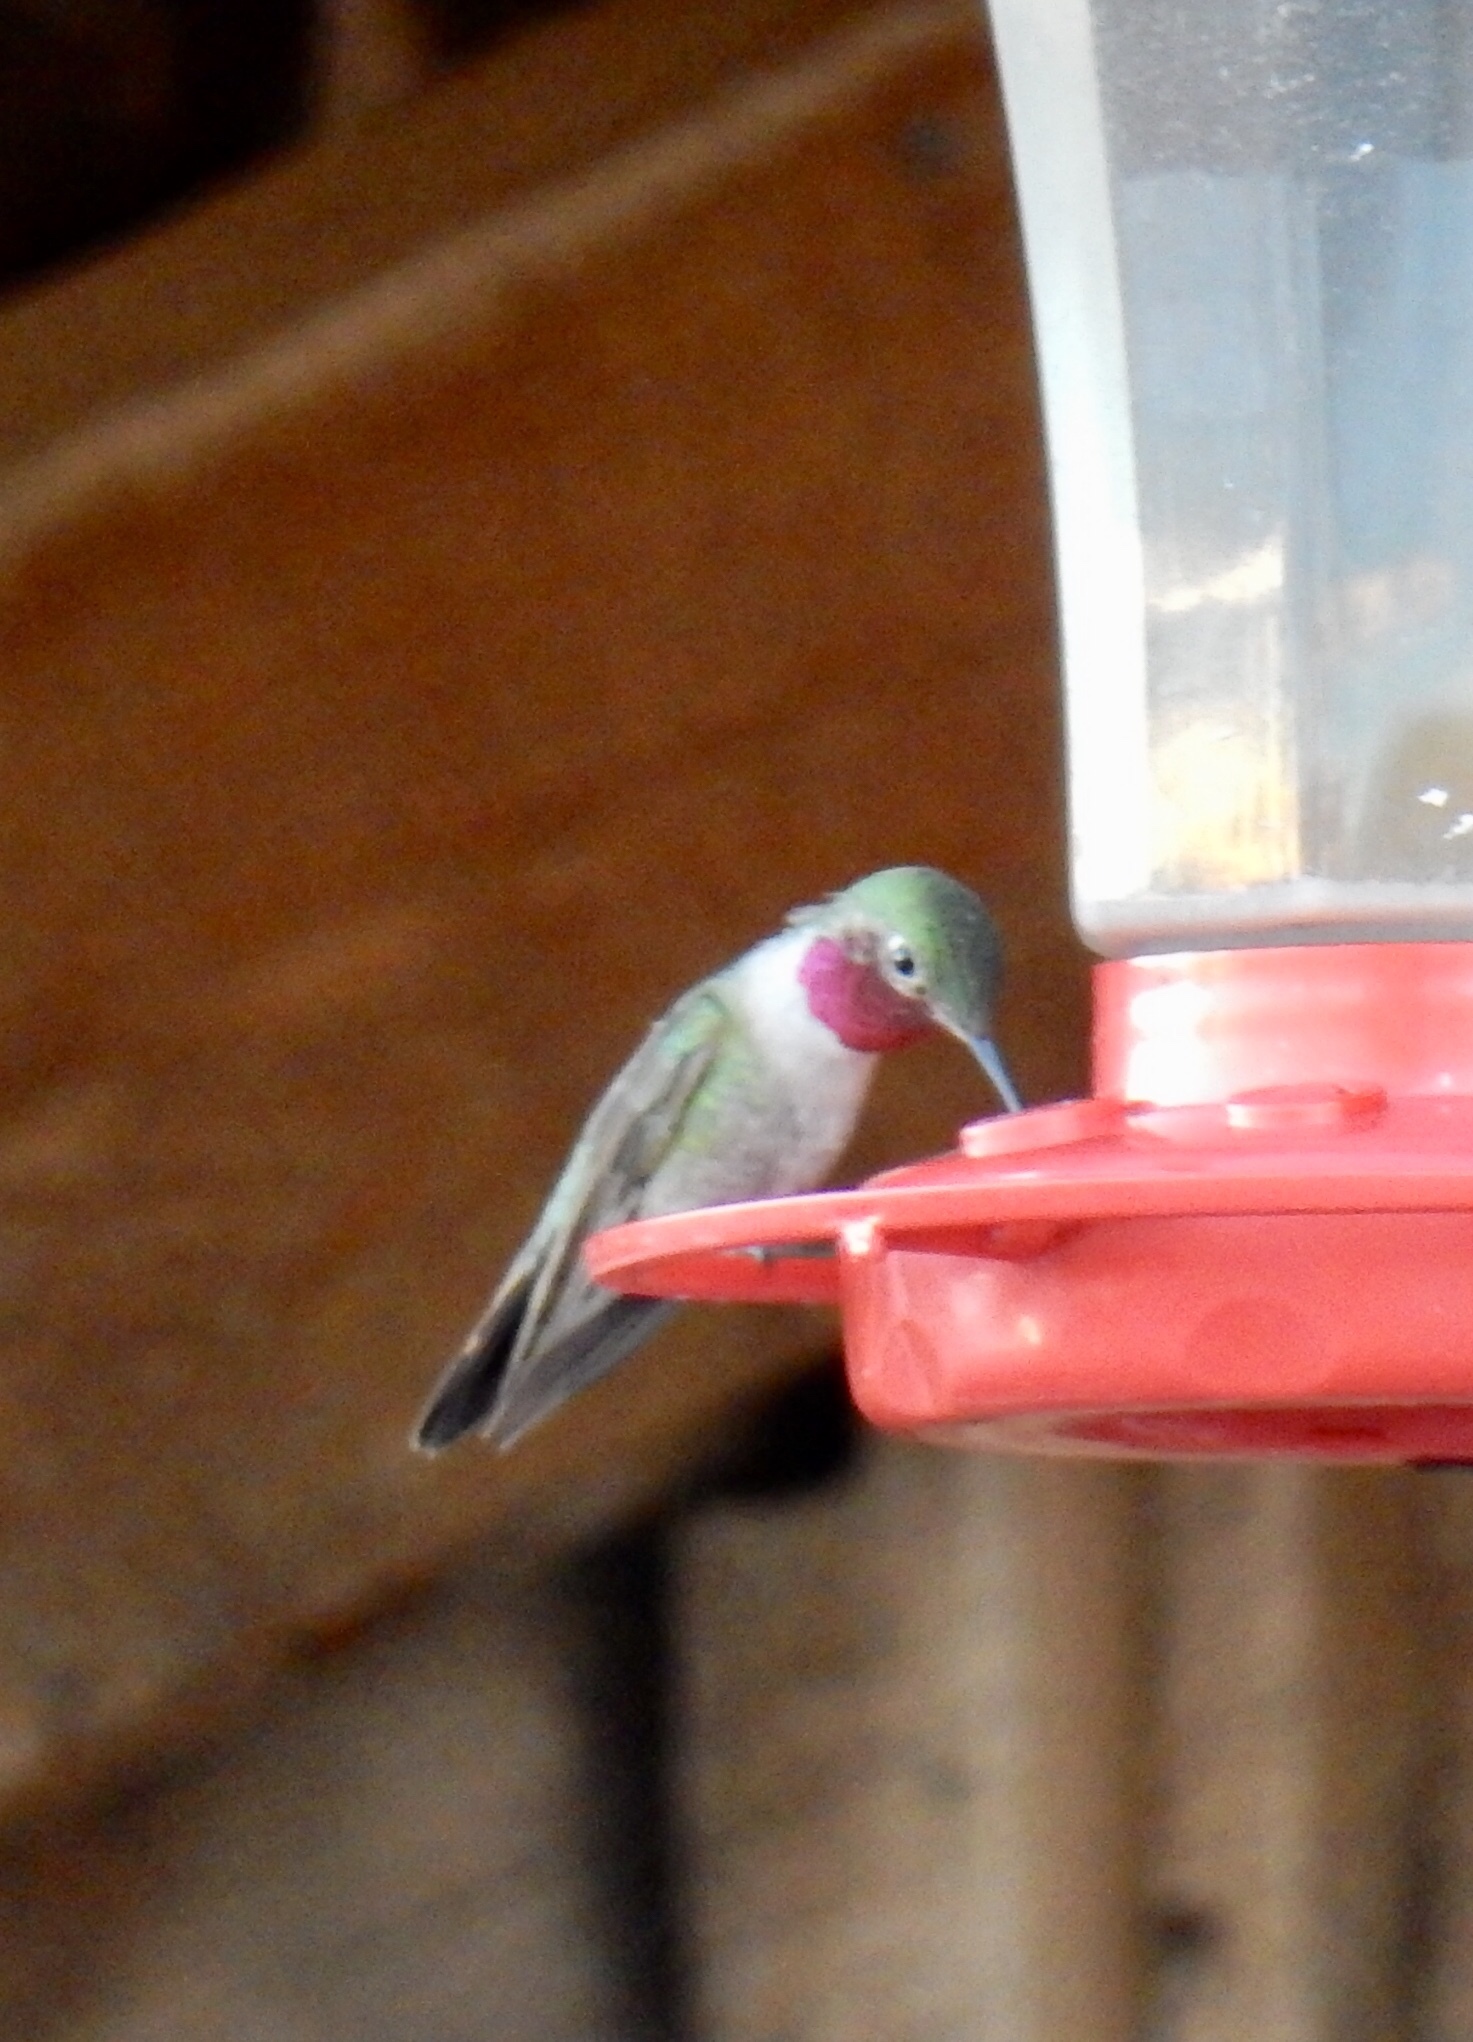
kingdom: Animalia
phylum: Chordata
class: Aves
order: Apodiformes
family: Trochilidae
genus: Selasphorus
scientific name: Selasphorus platycercus
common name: Broad-tailed hummingbird
